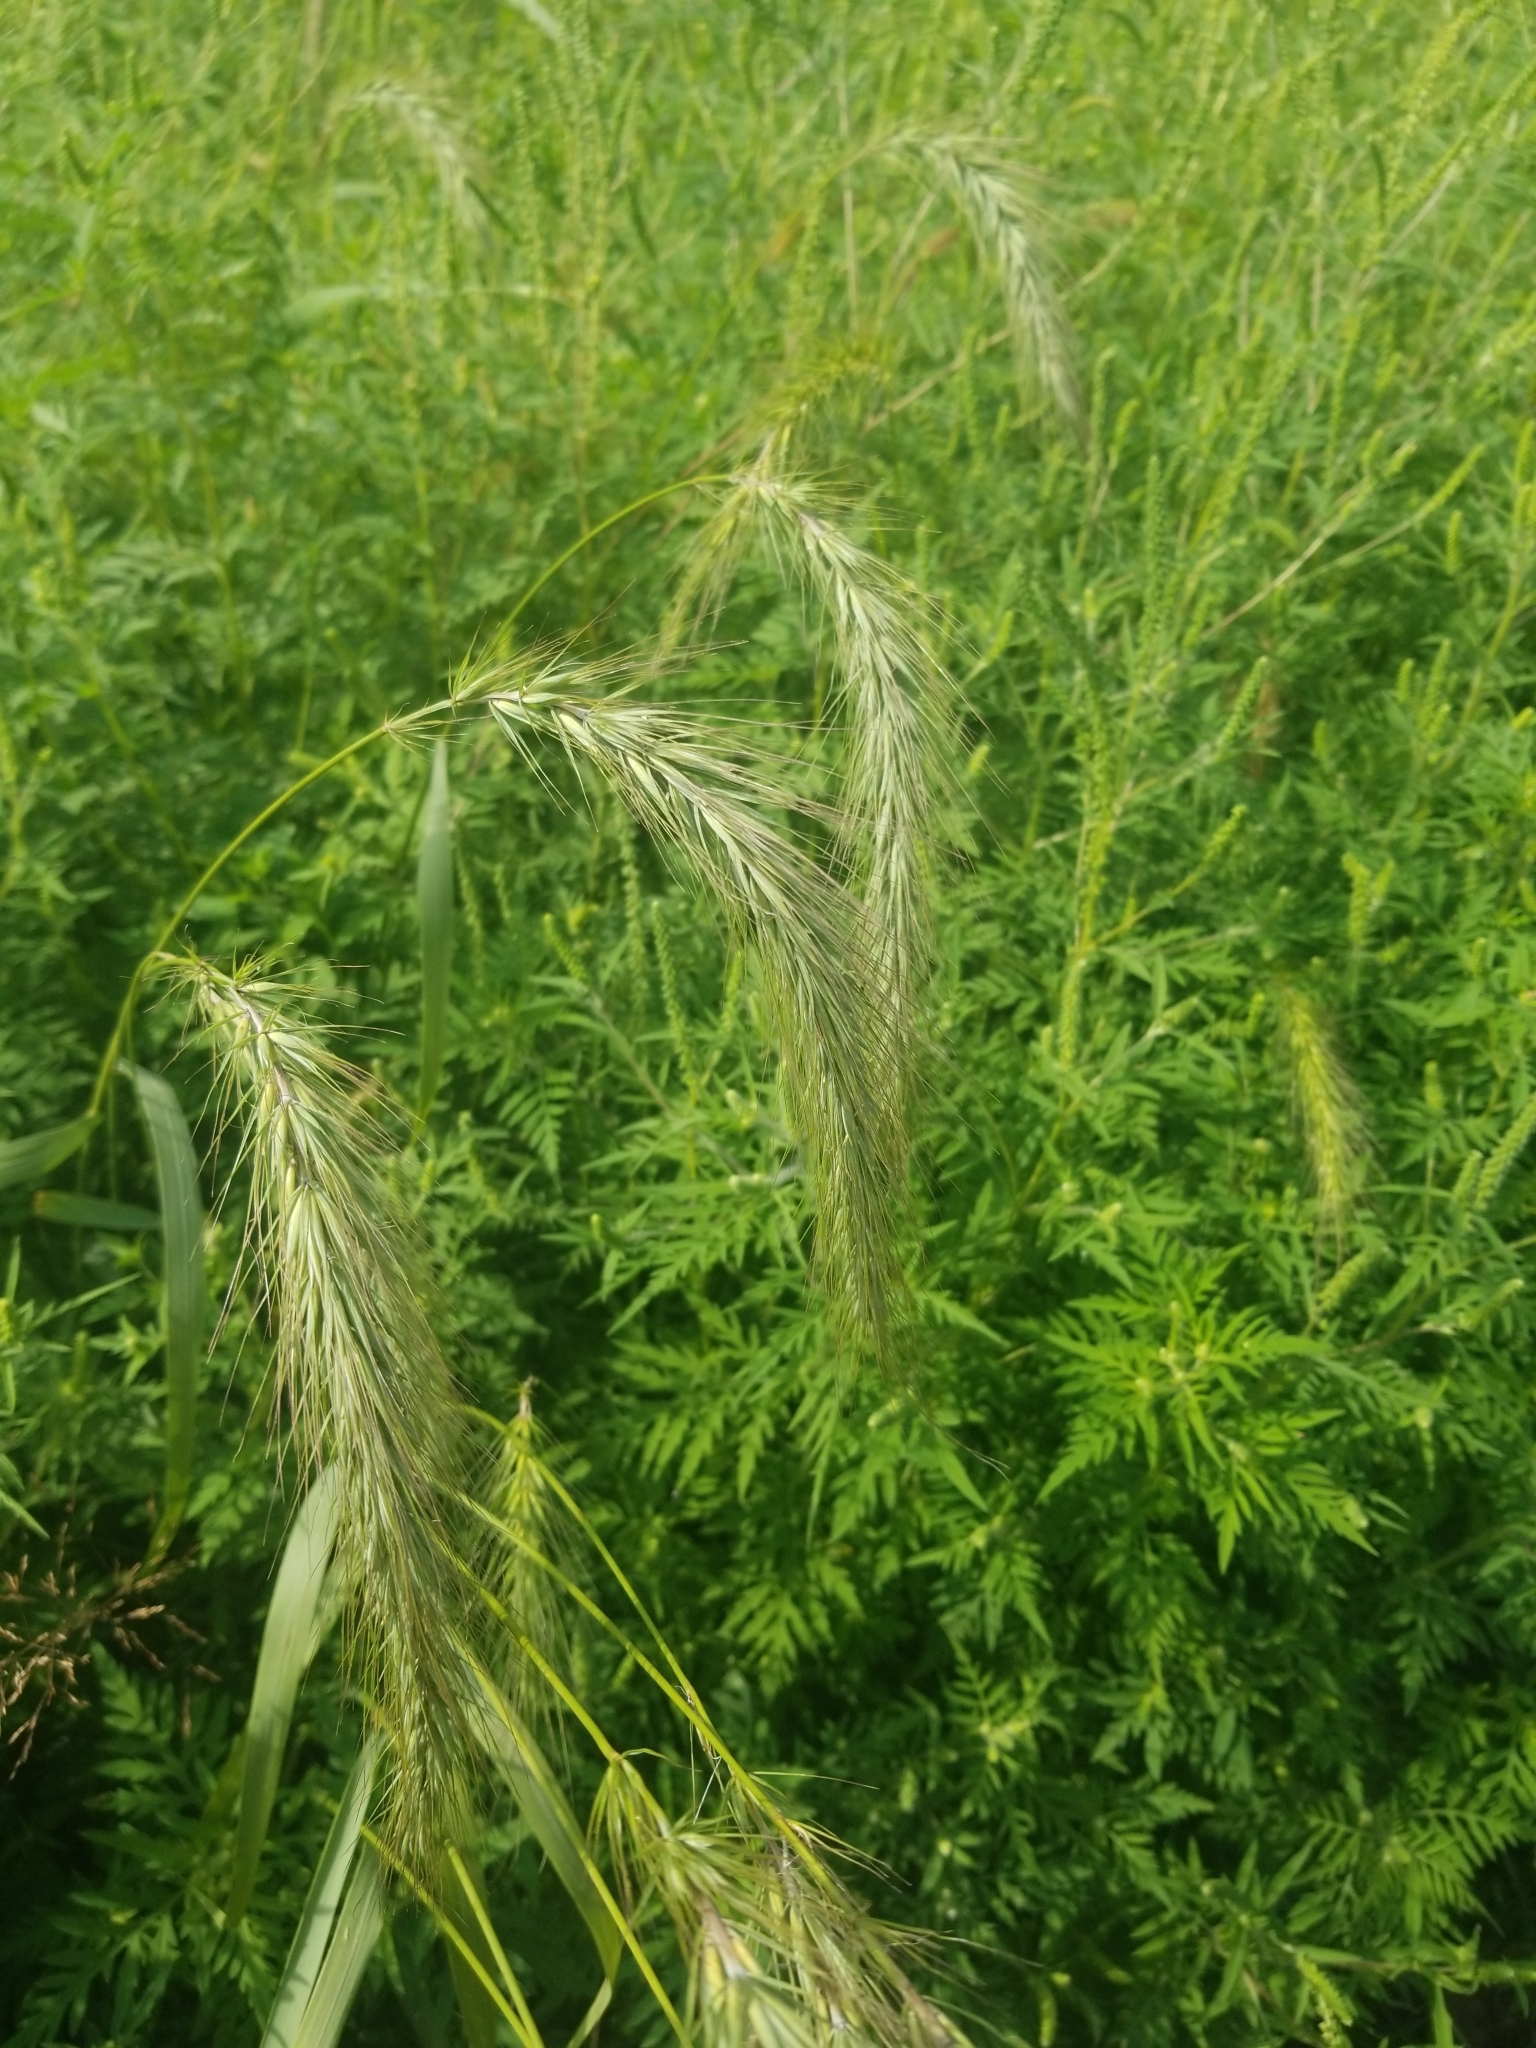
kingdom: Plantae
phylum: Tracheophyta
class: Liliopsida
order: Poales
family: Poaceae
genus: Elymus
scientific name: Elymus canadensis
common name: Canada wild rye
